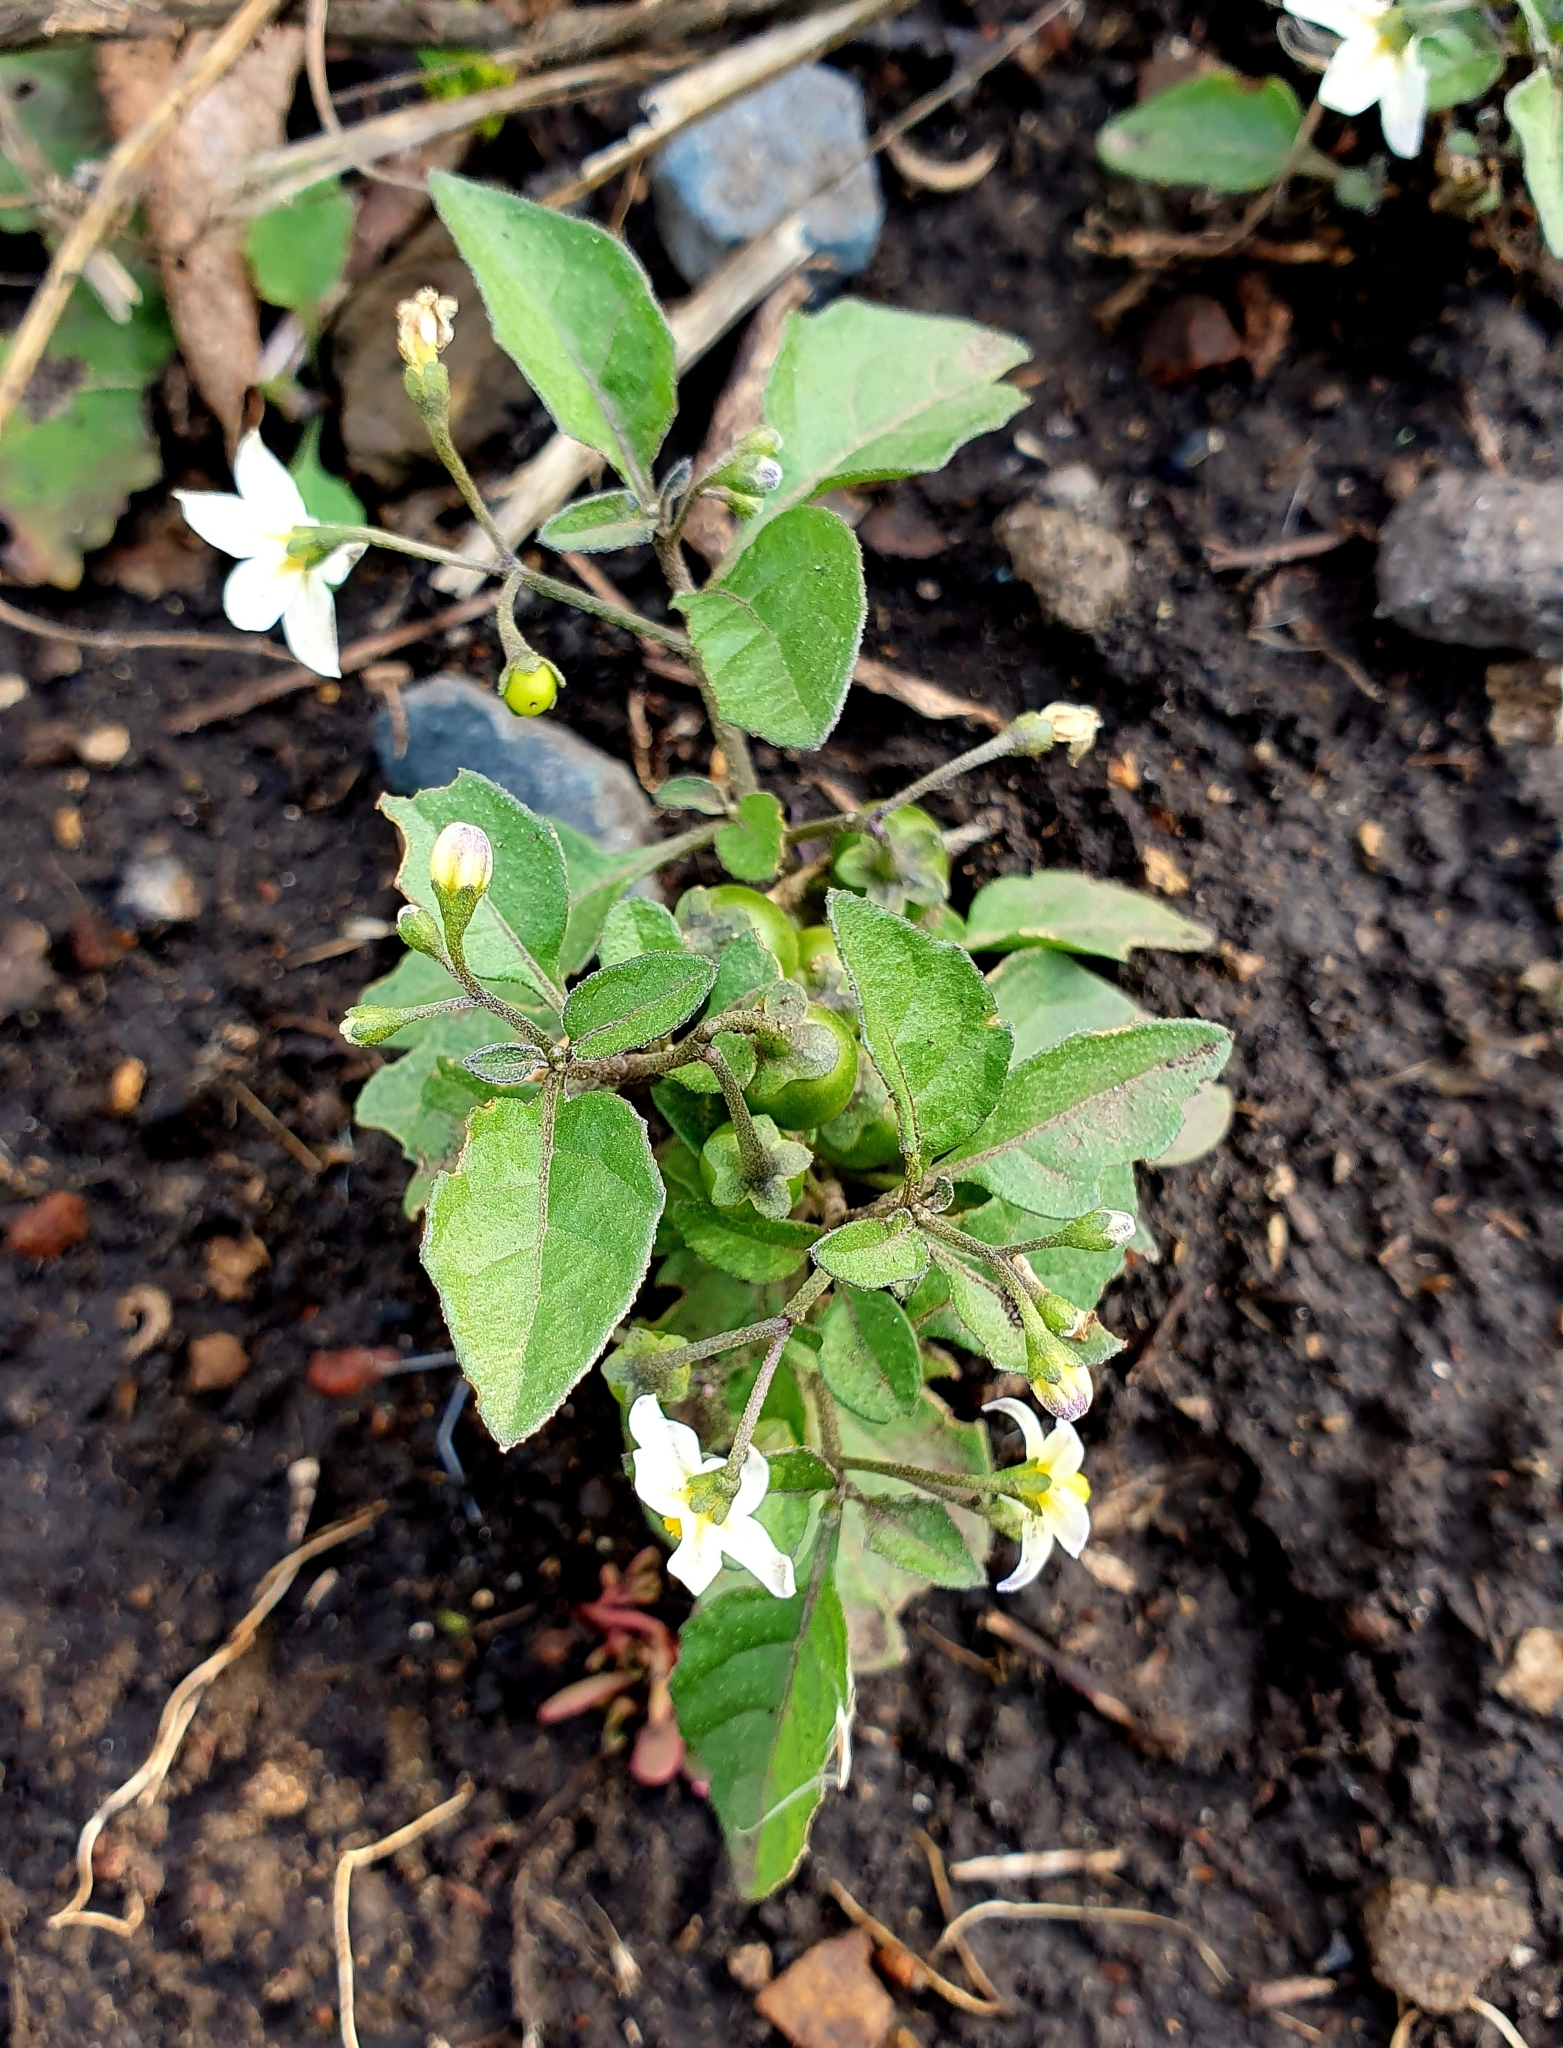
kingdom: Plantae
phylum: Tracheophyta
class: Magnoliopsida
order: Solanales
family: Solanaceae
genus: Solanum
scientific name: Solanum nigrum
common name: Black nightshade
